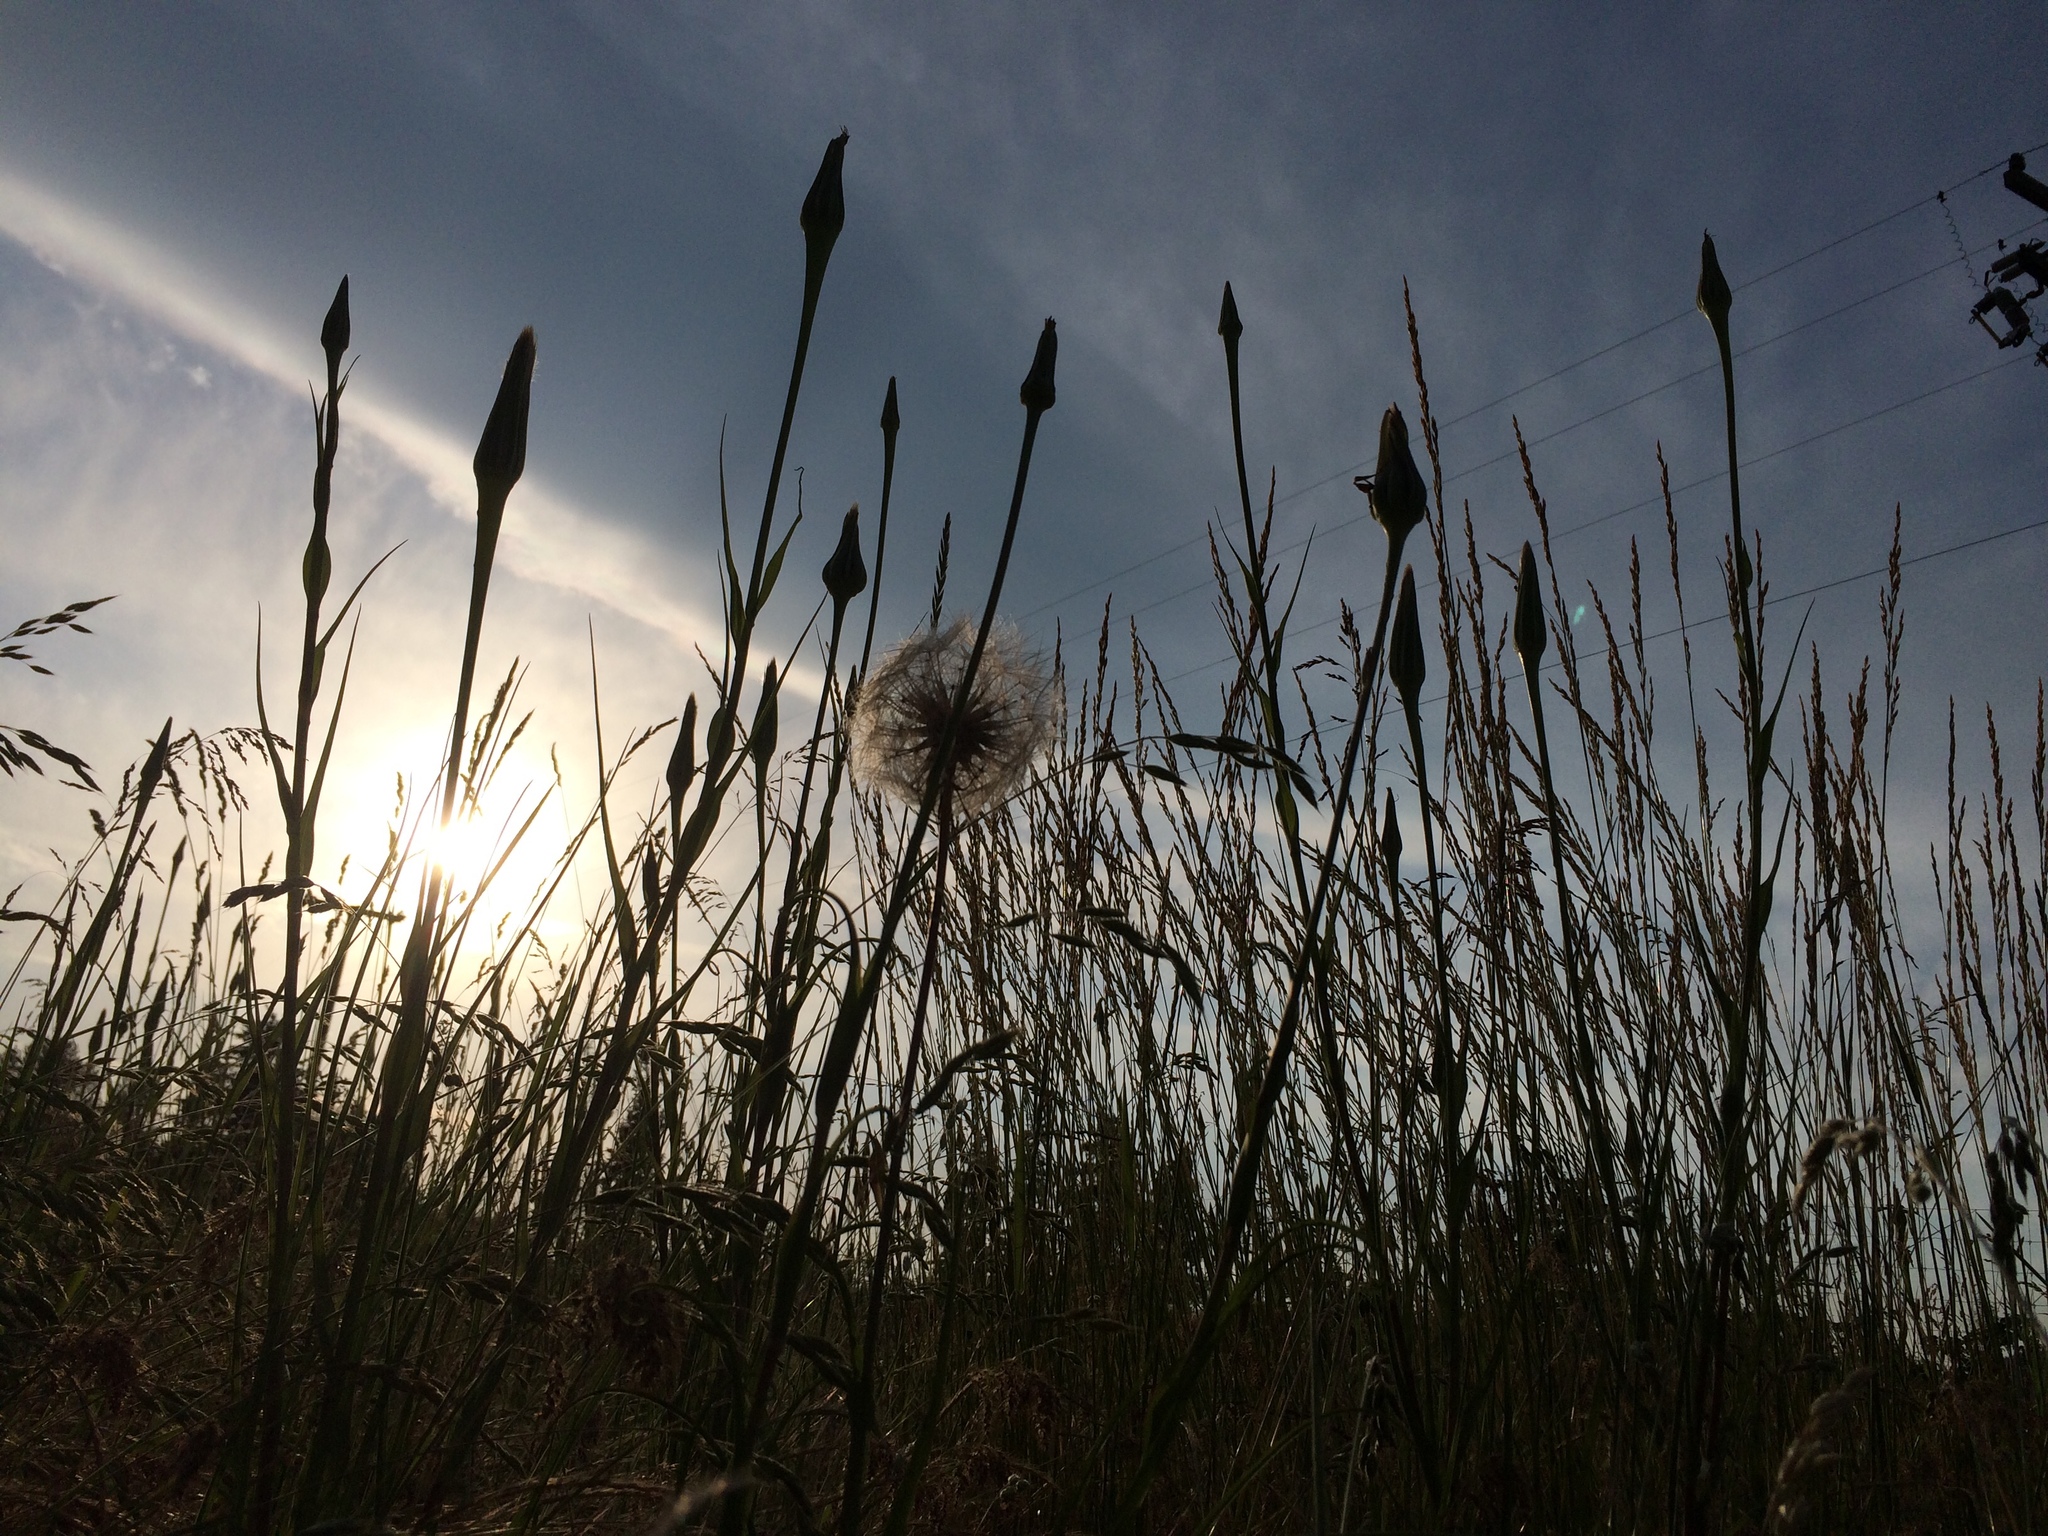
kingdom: Plantae
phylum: Tracheophyta
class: Magnoliopsida
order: Asterales
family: Asteraceae
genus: Tragopogon
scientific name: Tragopogon dubius
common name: Yellow salsify
